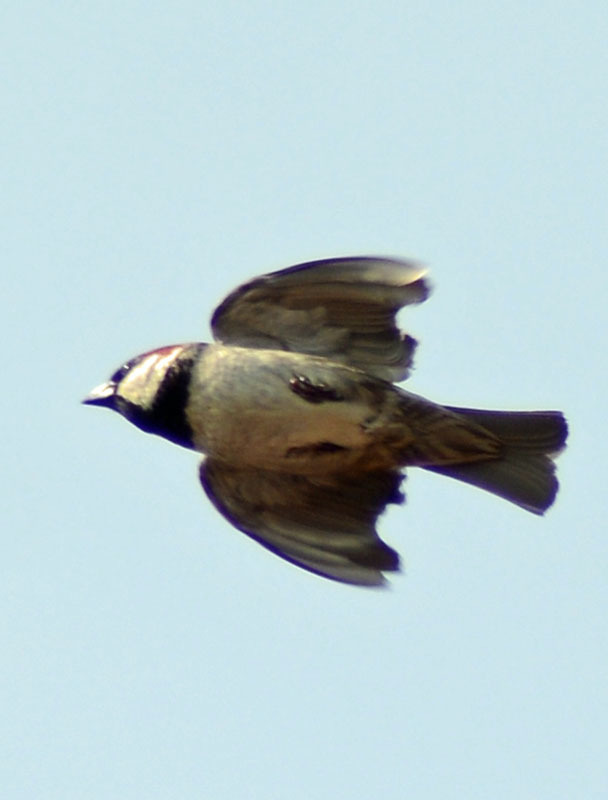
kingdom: Animalia
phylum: Chordata
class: Aves
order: Passeriformes
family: Passeridae
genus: Passer
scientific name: Passer domesticus
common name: House sparrow
